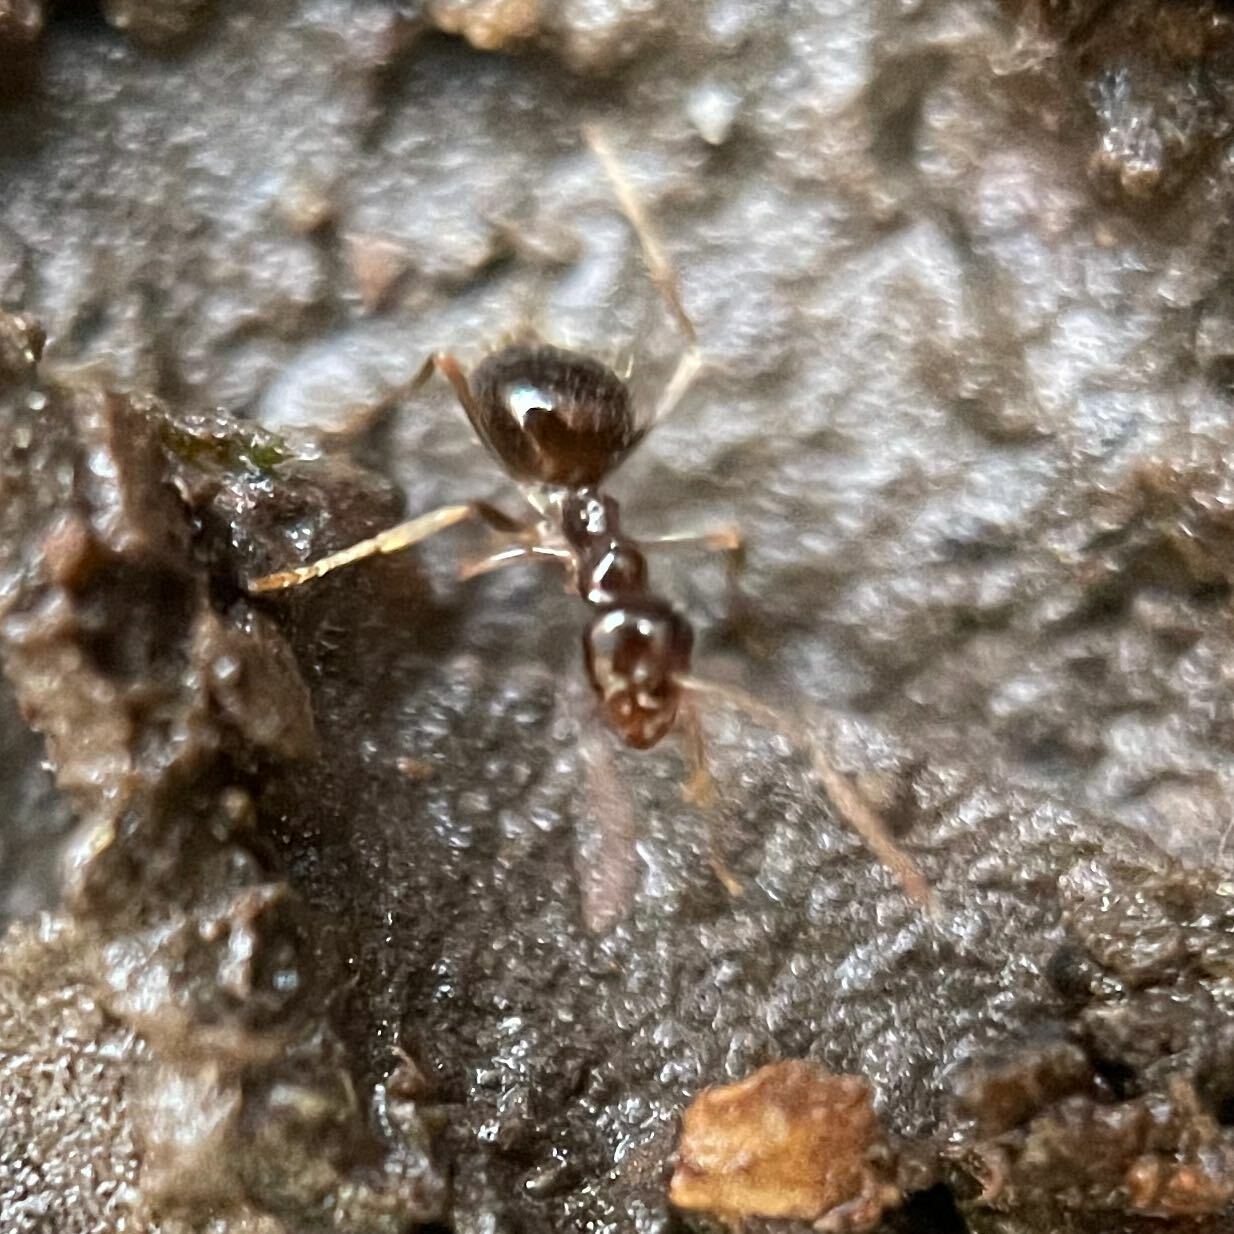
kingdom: Animalia
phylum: Arthropoda
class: Insecta
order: Hymenoptera
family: Formicidae
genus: Prenolepis
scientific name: Prenolepis imparis
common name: Small honey ant
